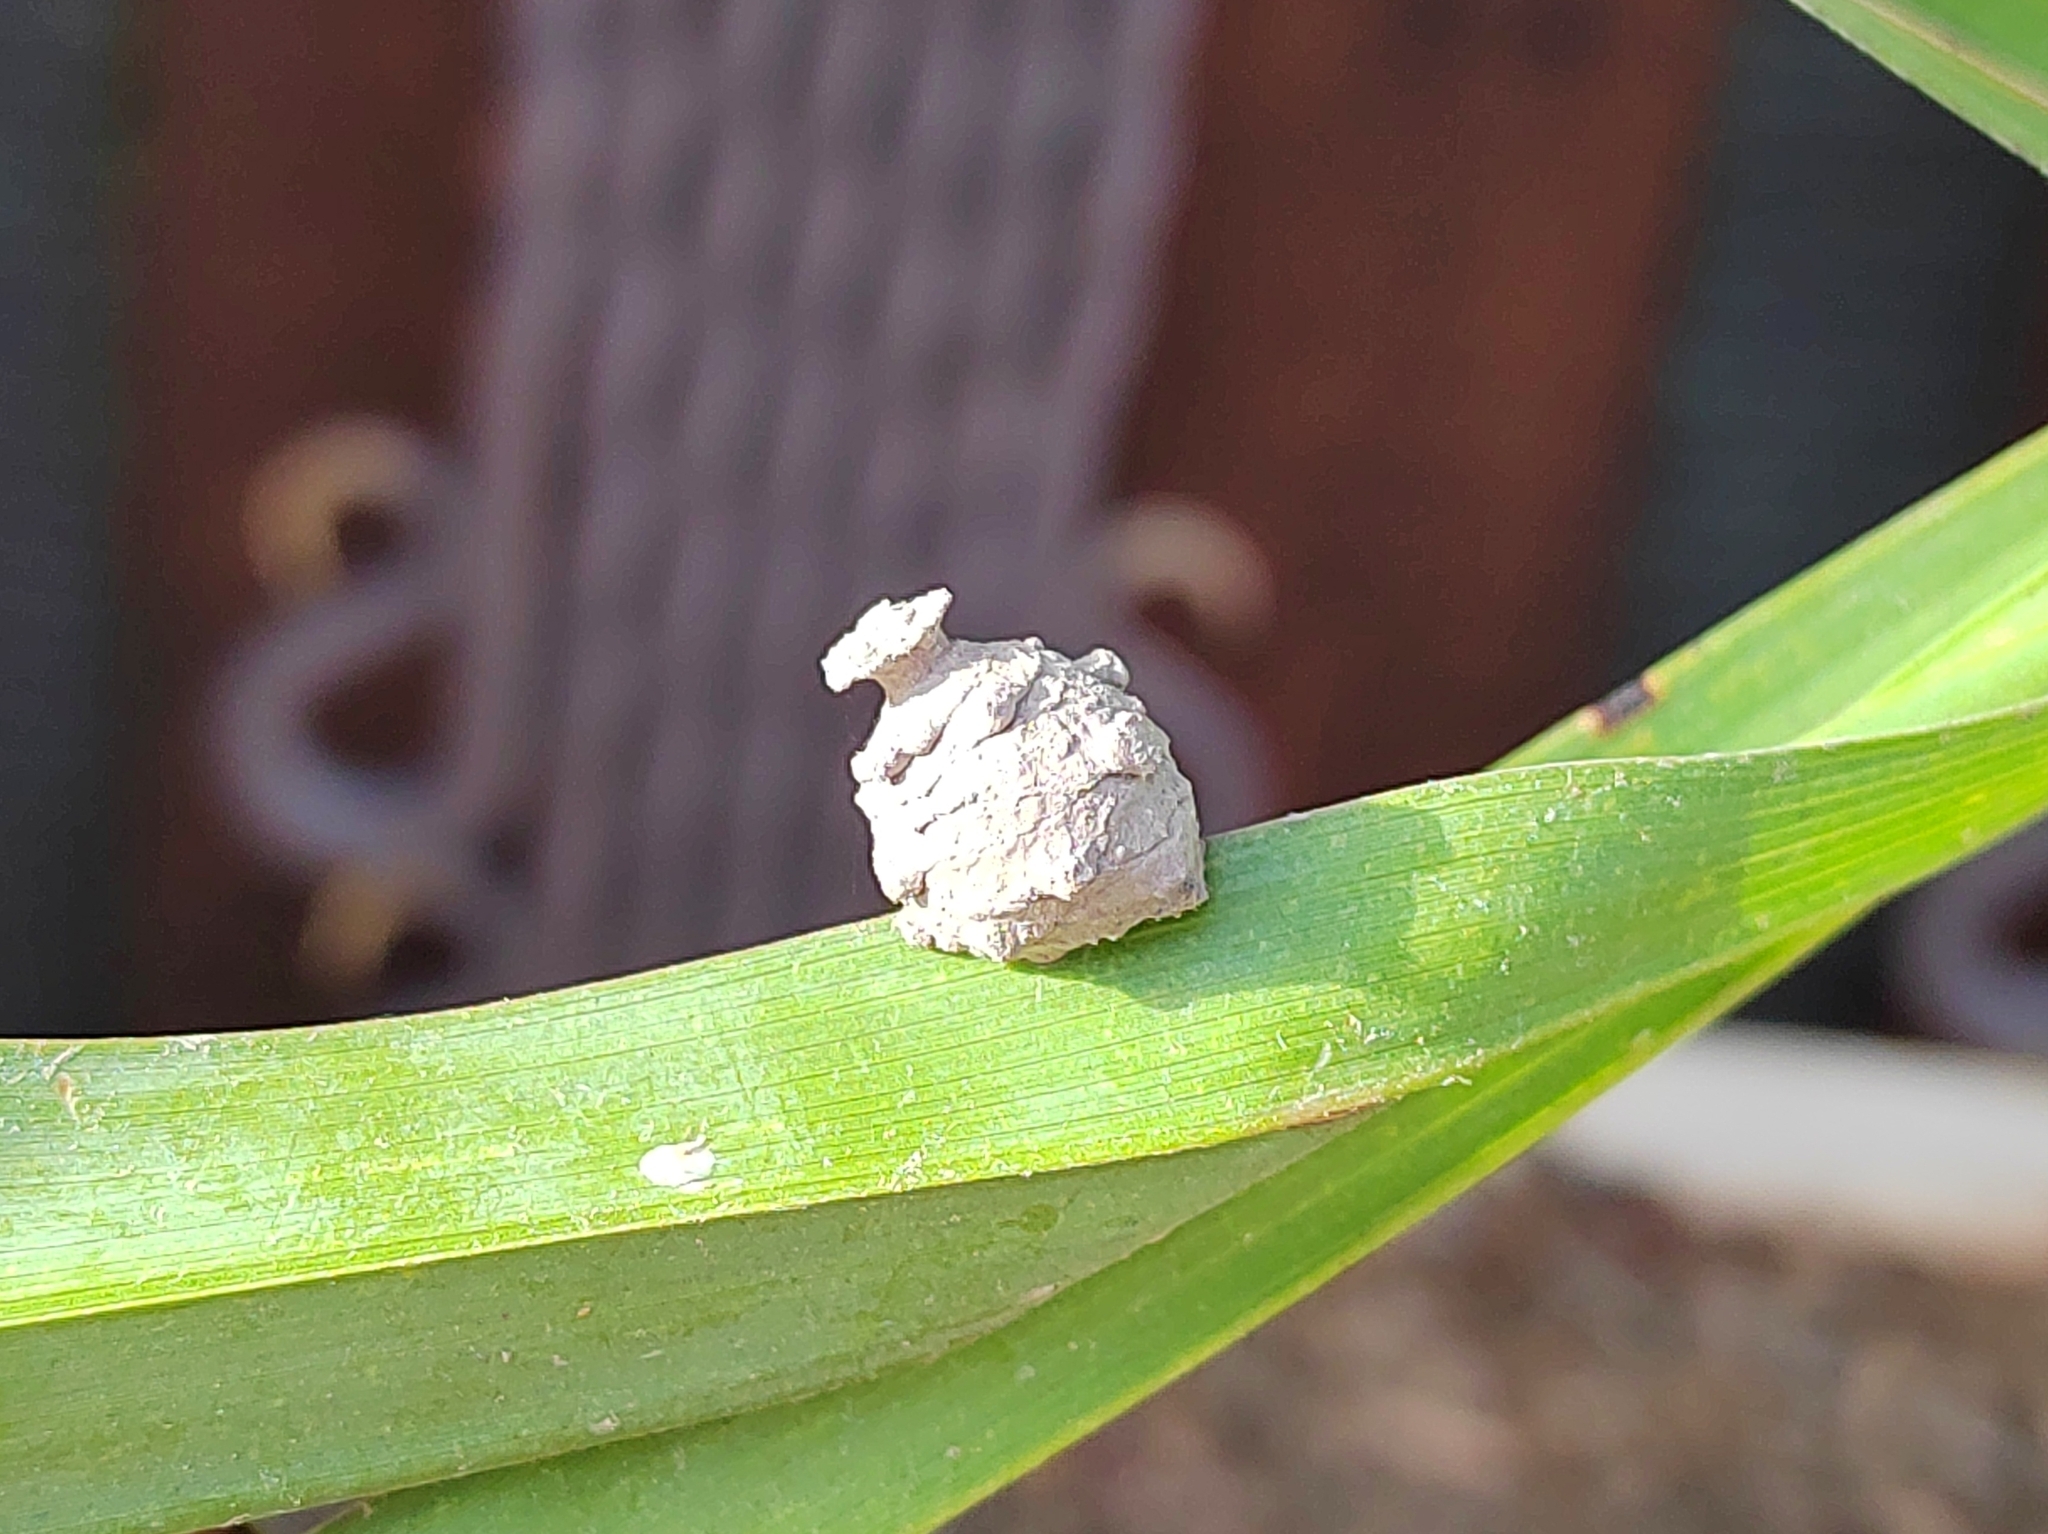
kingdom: Animalia
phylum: Arthropoda
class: Insecta
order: Hymenoptera
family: Vespidae
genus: Eumenes
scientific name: Eumenes coarctatus
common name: Heath potter wasp
